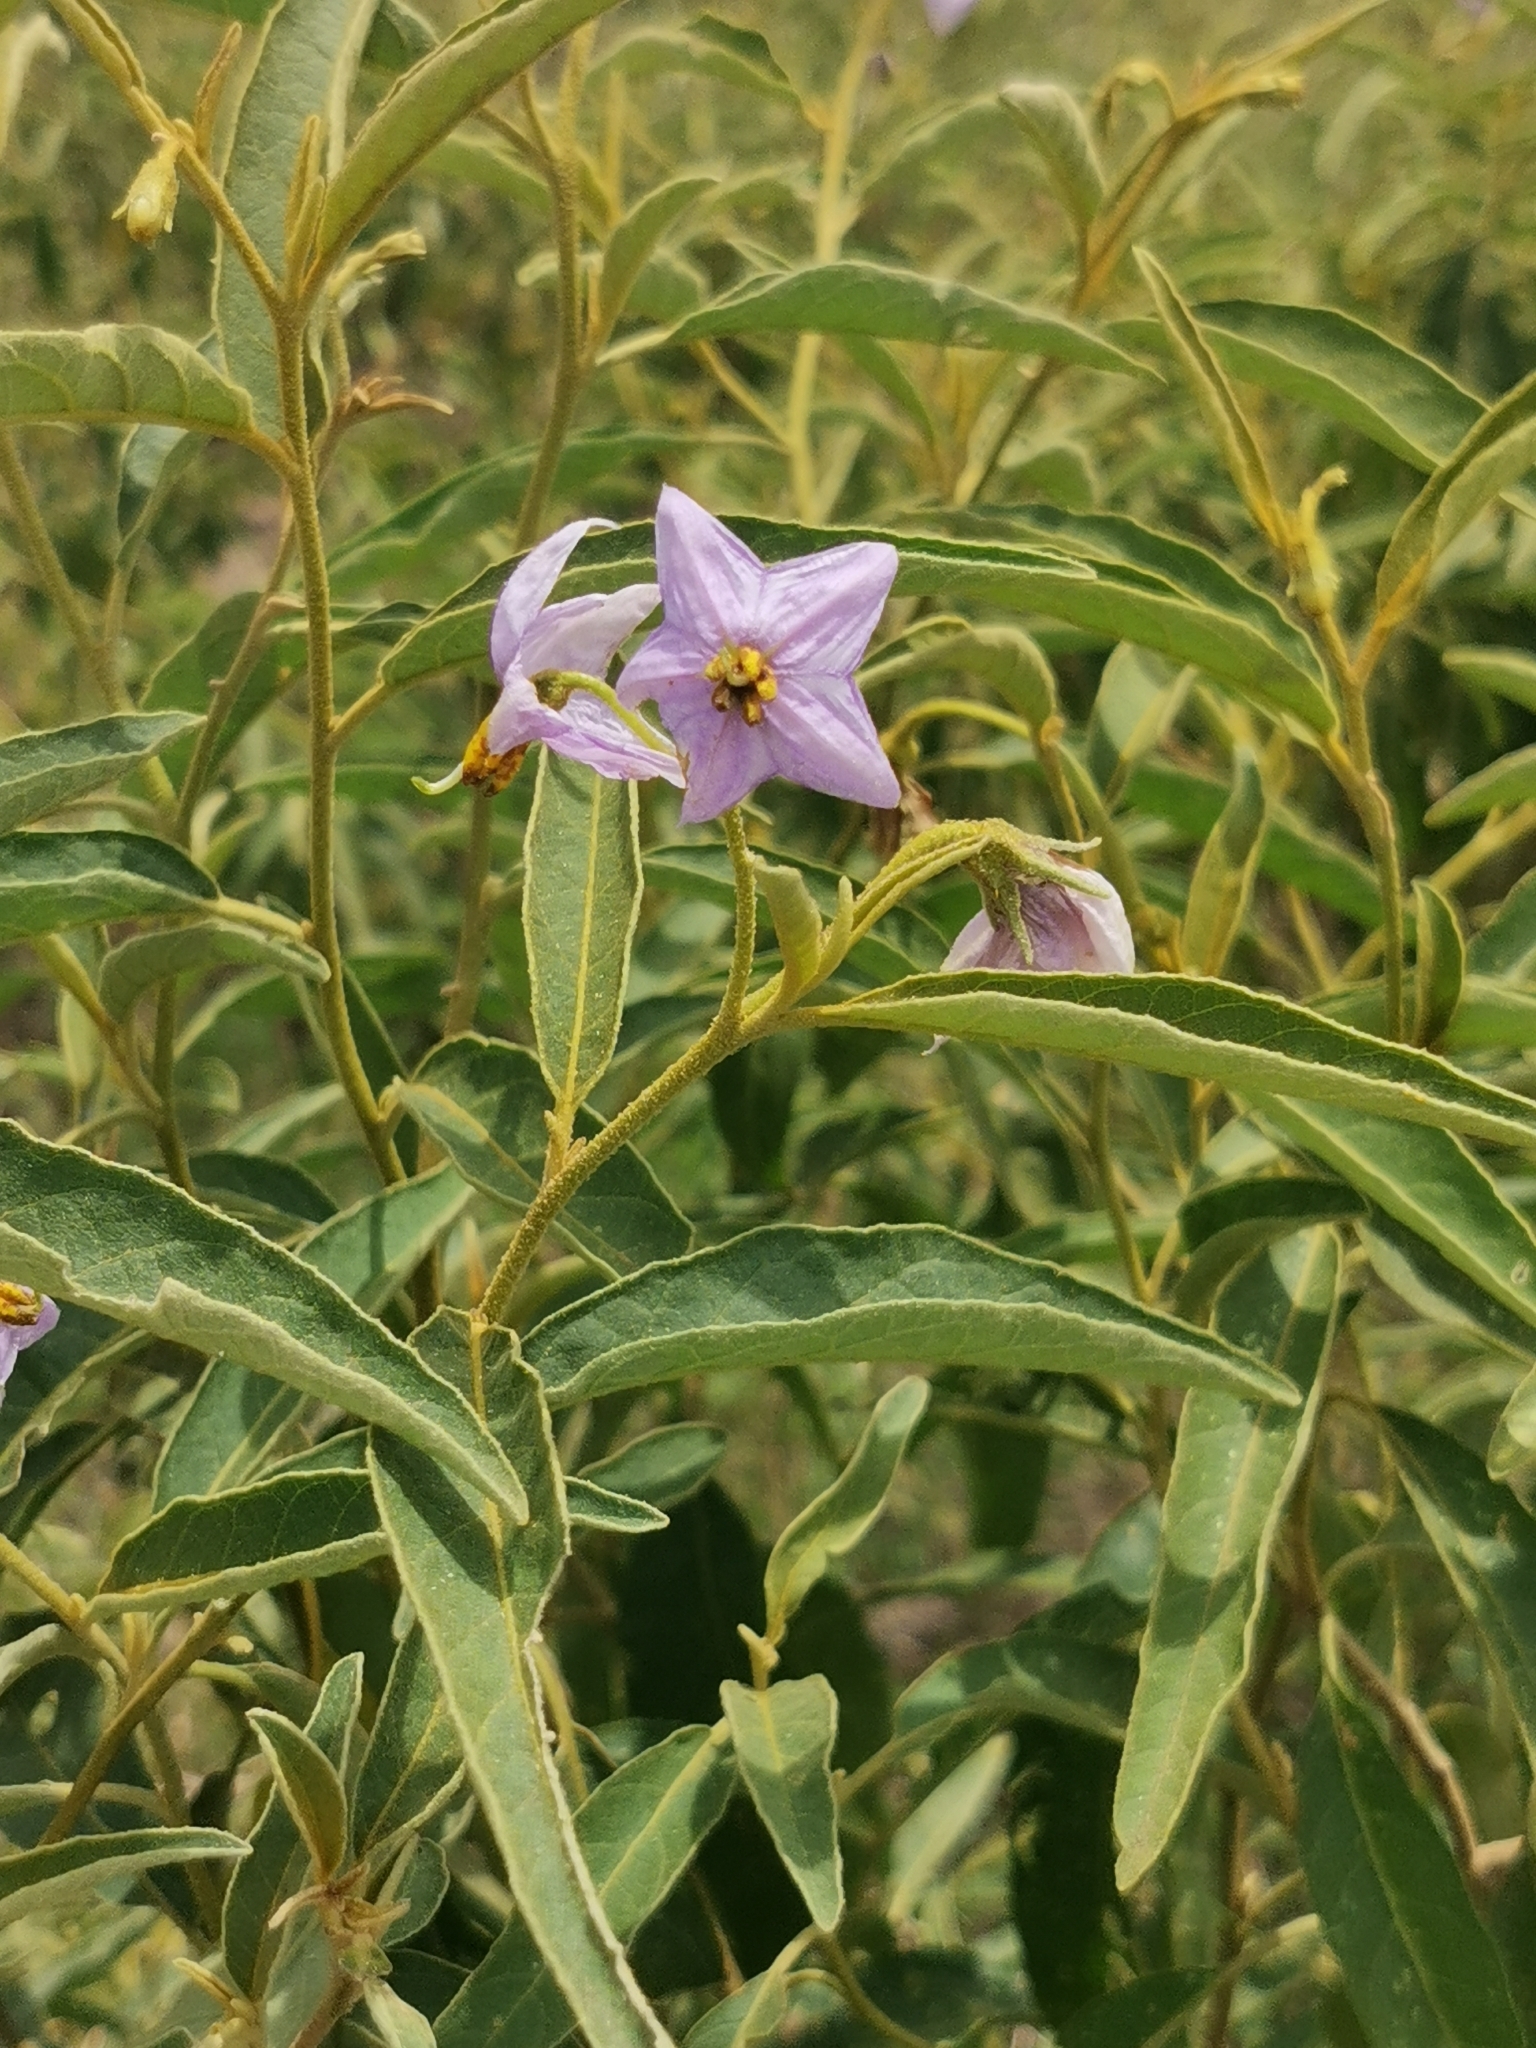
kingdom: Plantae
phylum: Tracheophyta
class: Magnoliopsida
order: Solanales
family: Solanaceae
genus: Solanum
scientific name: Solanum campylacanthum
